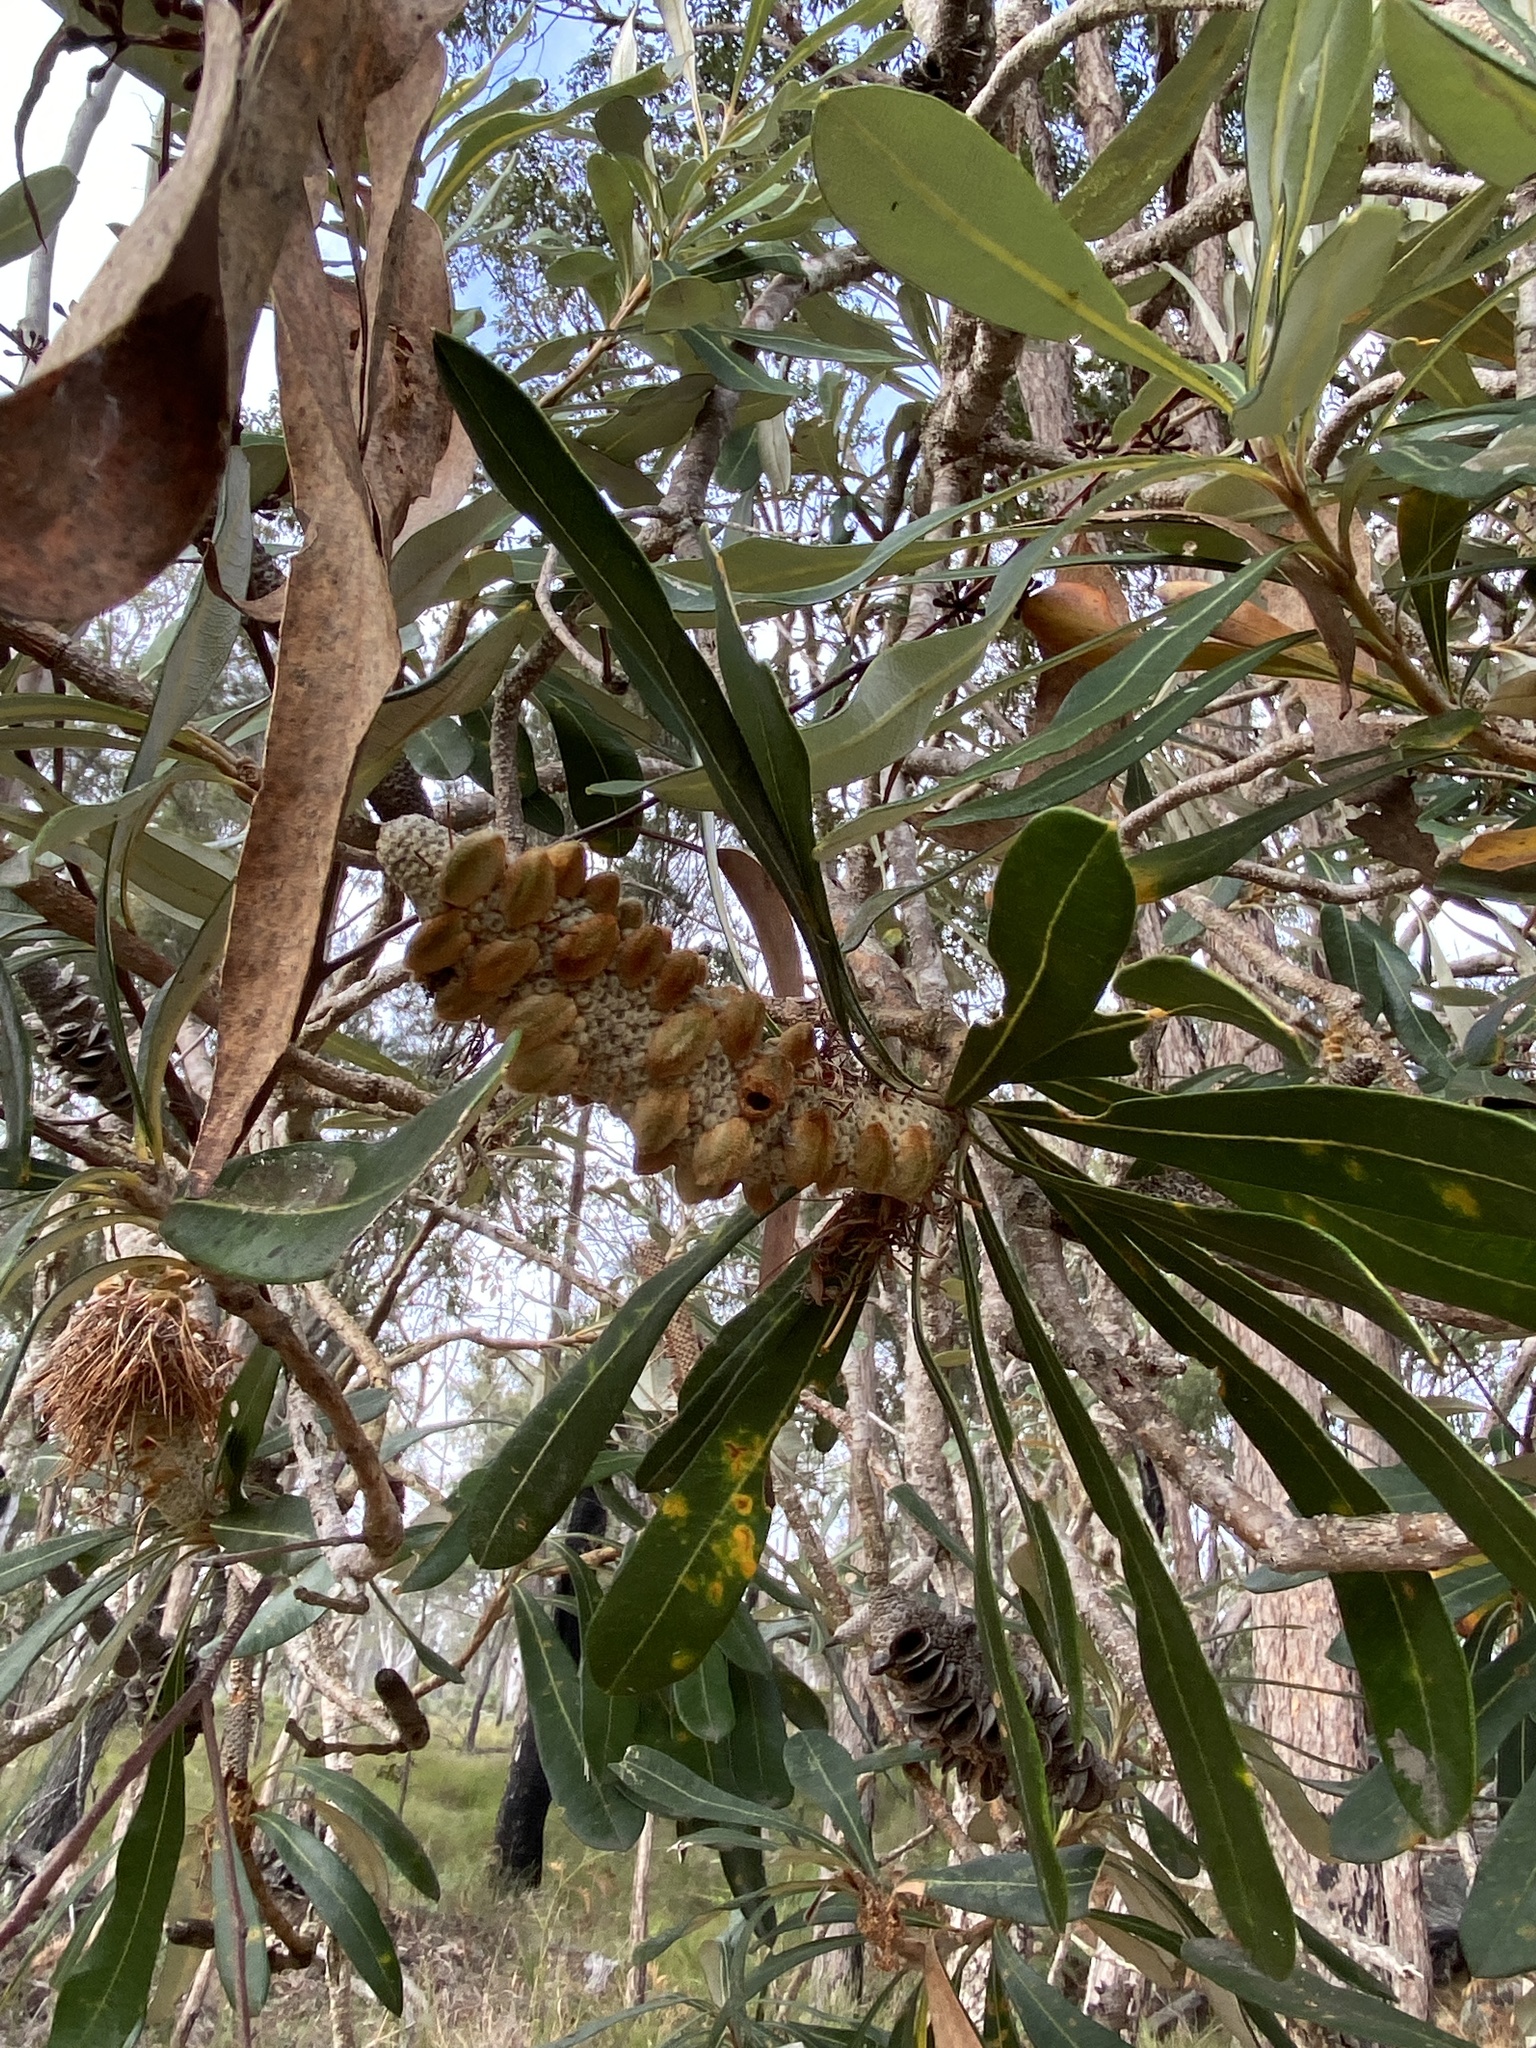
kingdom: Plantae
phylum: Tracheophyta
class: Magnoliopsida
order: Proteales
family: Proteaceae
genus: Banksia
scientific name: Banksia integrifolia
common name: White-honeysuckle
